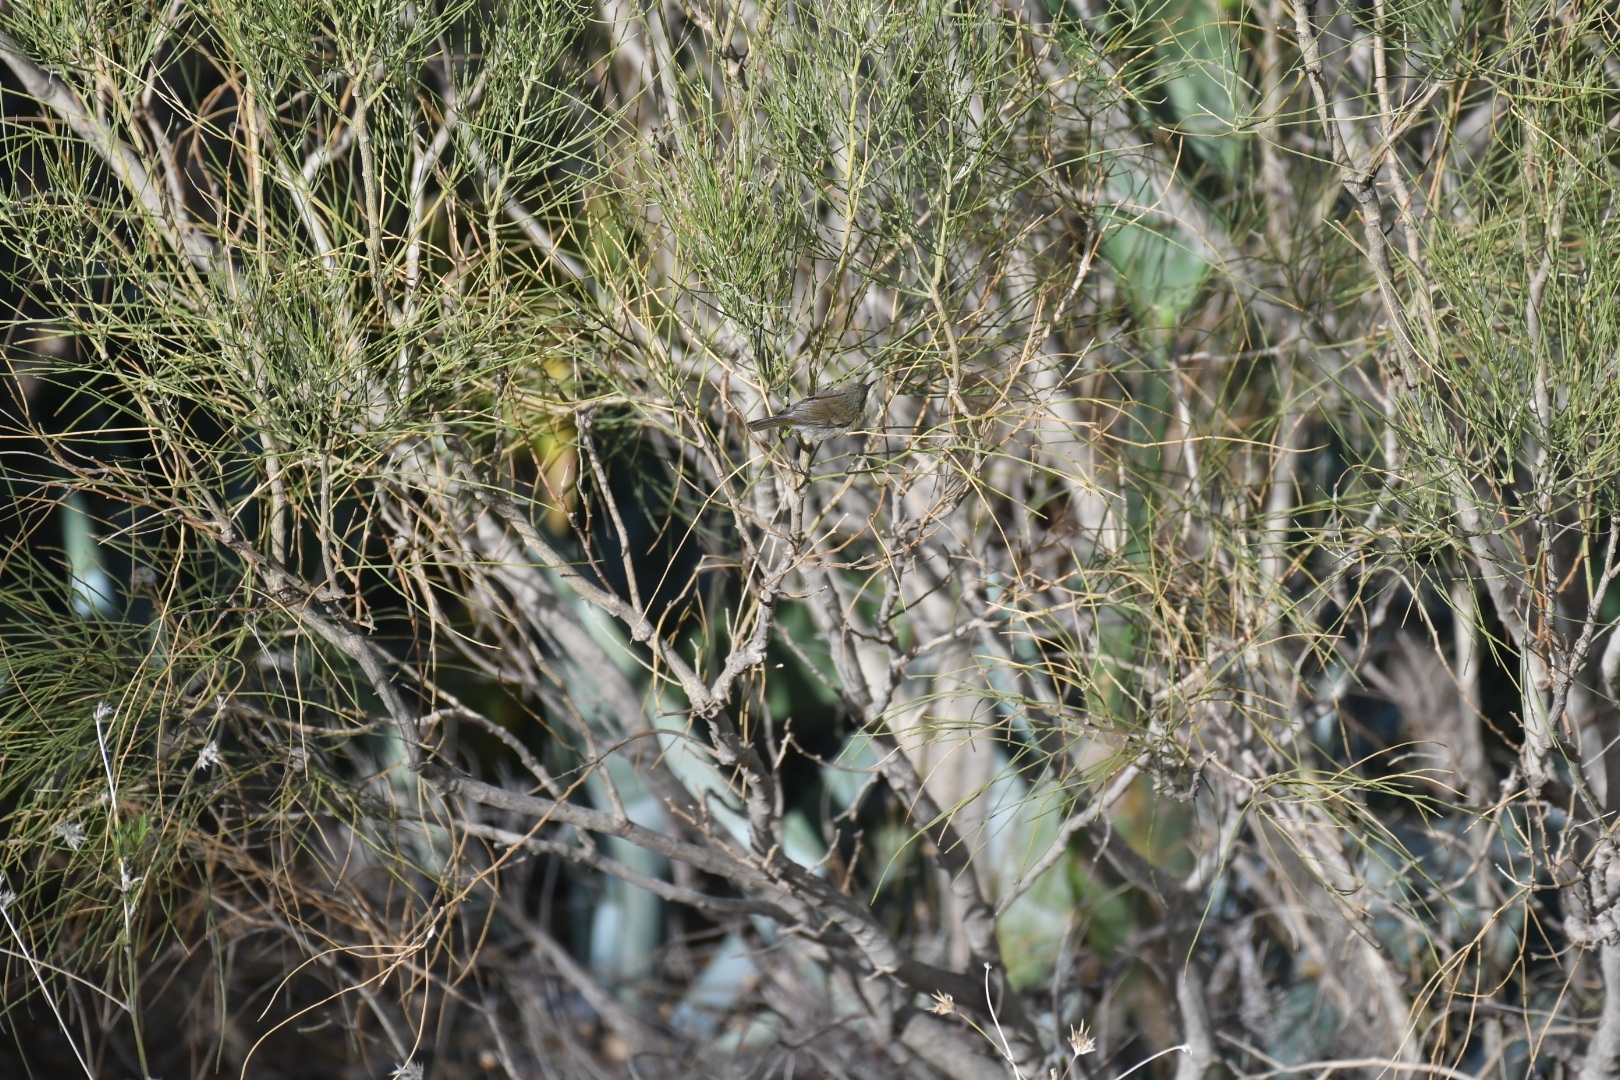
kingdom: Animalia
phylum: Chordata
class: Aves
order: Passeriformes
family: Phylloscopidae
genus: Phylloscopus
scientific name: Phylloscopus canariensis
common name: Canary islands chiffchaff
